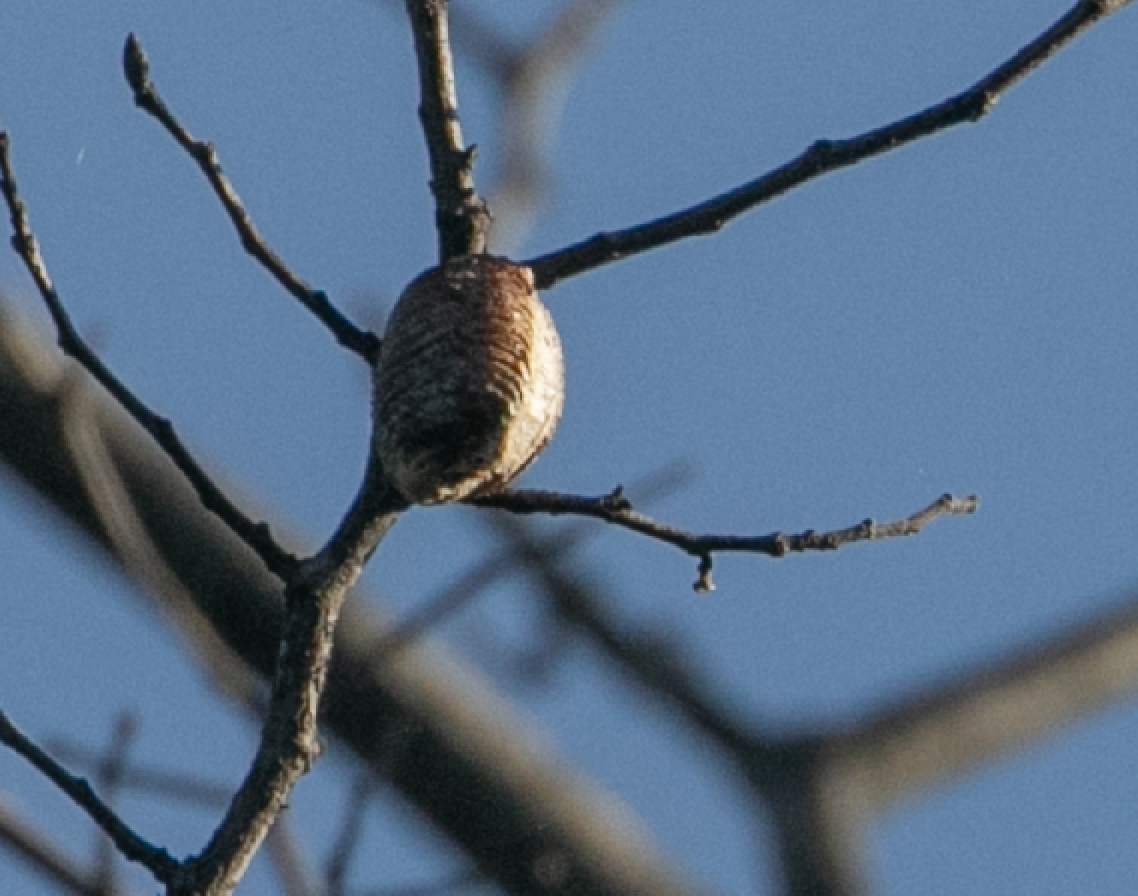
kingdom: Animalia
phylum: Arthropoda
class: Insecta
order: Mantodea
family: Mantidae
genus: Hierodula
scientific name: Hierodula transcaucasica
